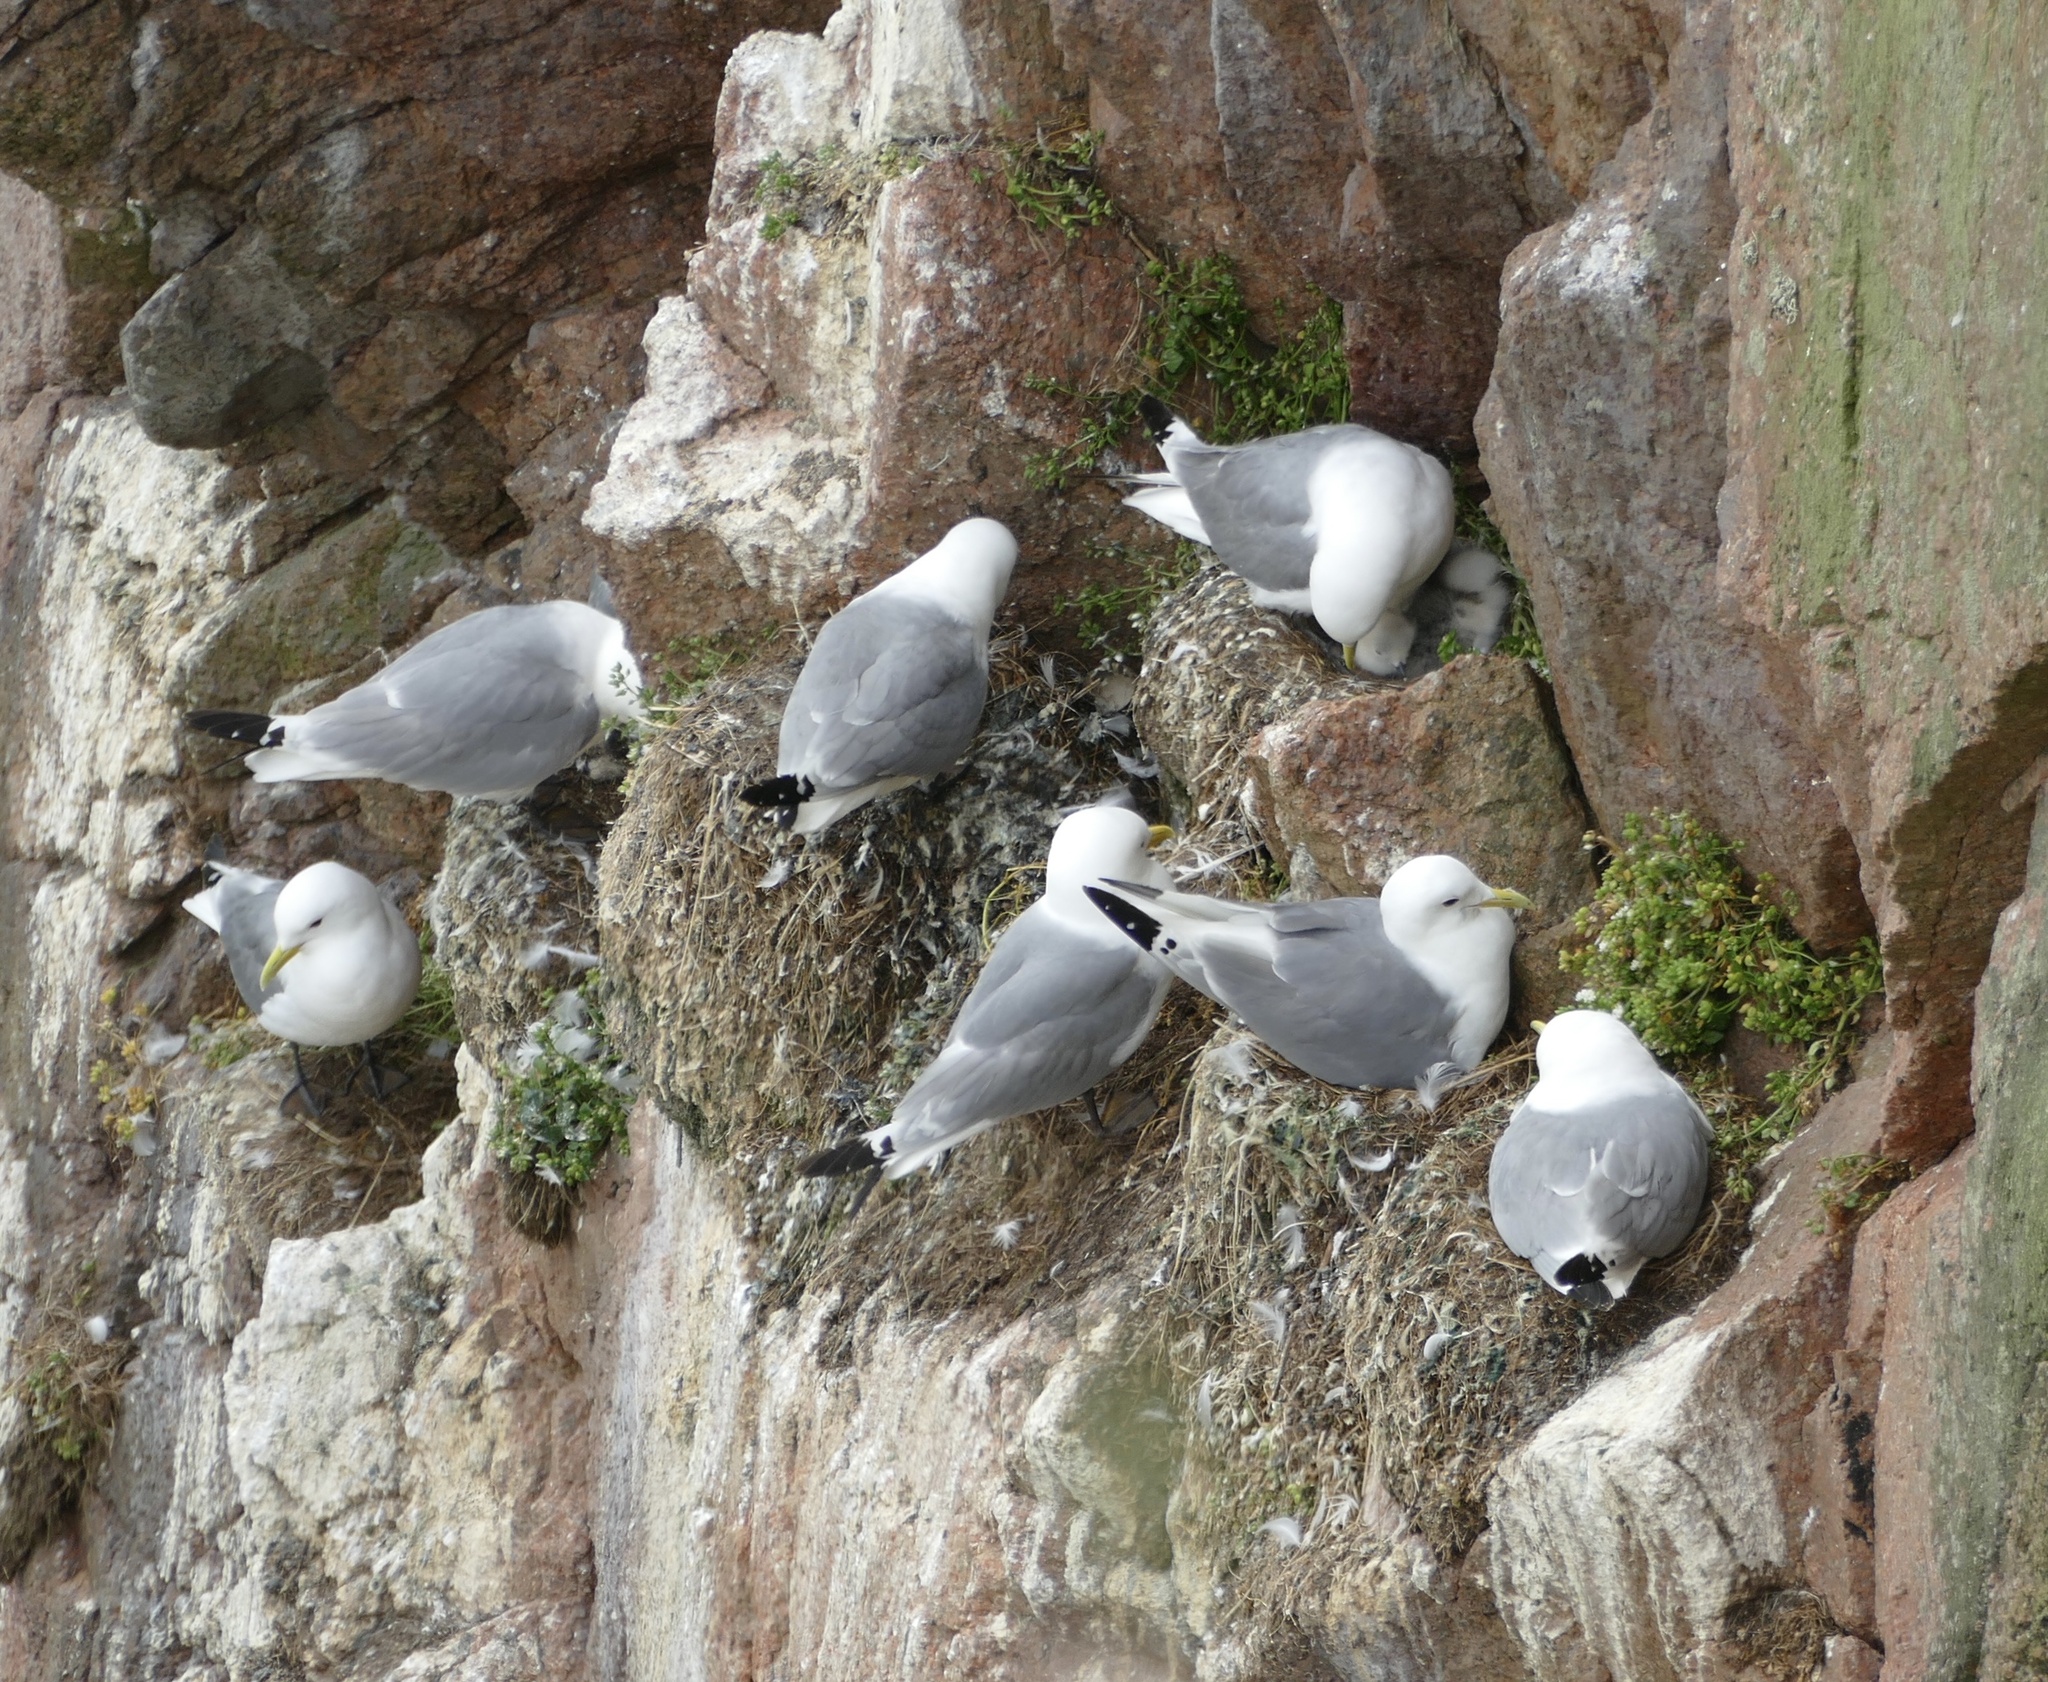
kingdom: Animalia
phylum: Chordata
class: Aves
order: Charadriiformes
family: Laridae
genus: Rissa
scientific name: Rissa tridactyla
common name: Black-legged kittiwake
